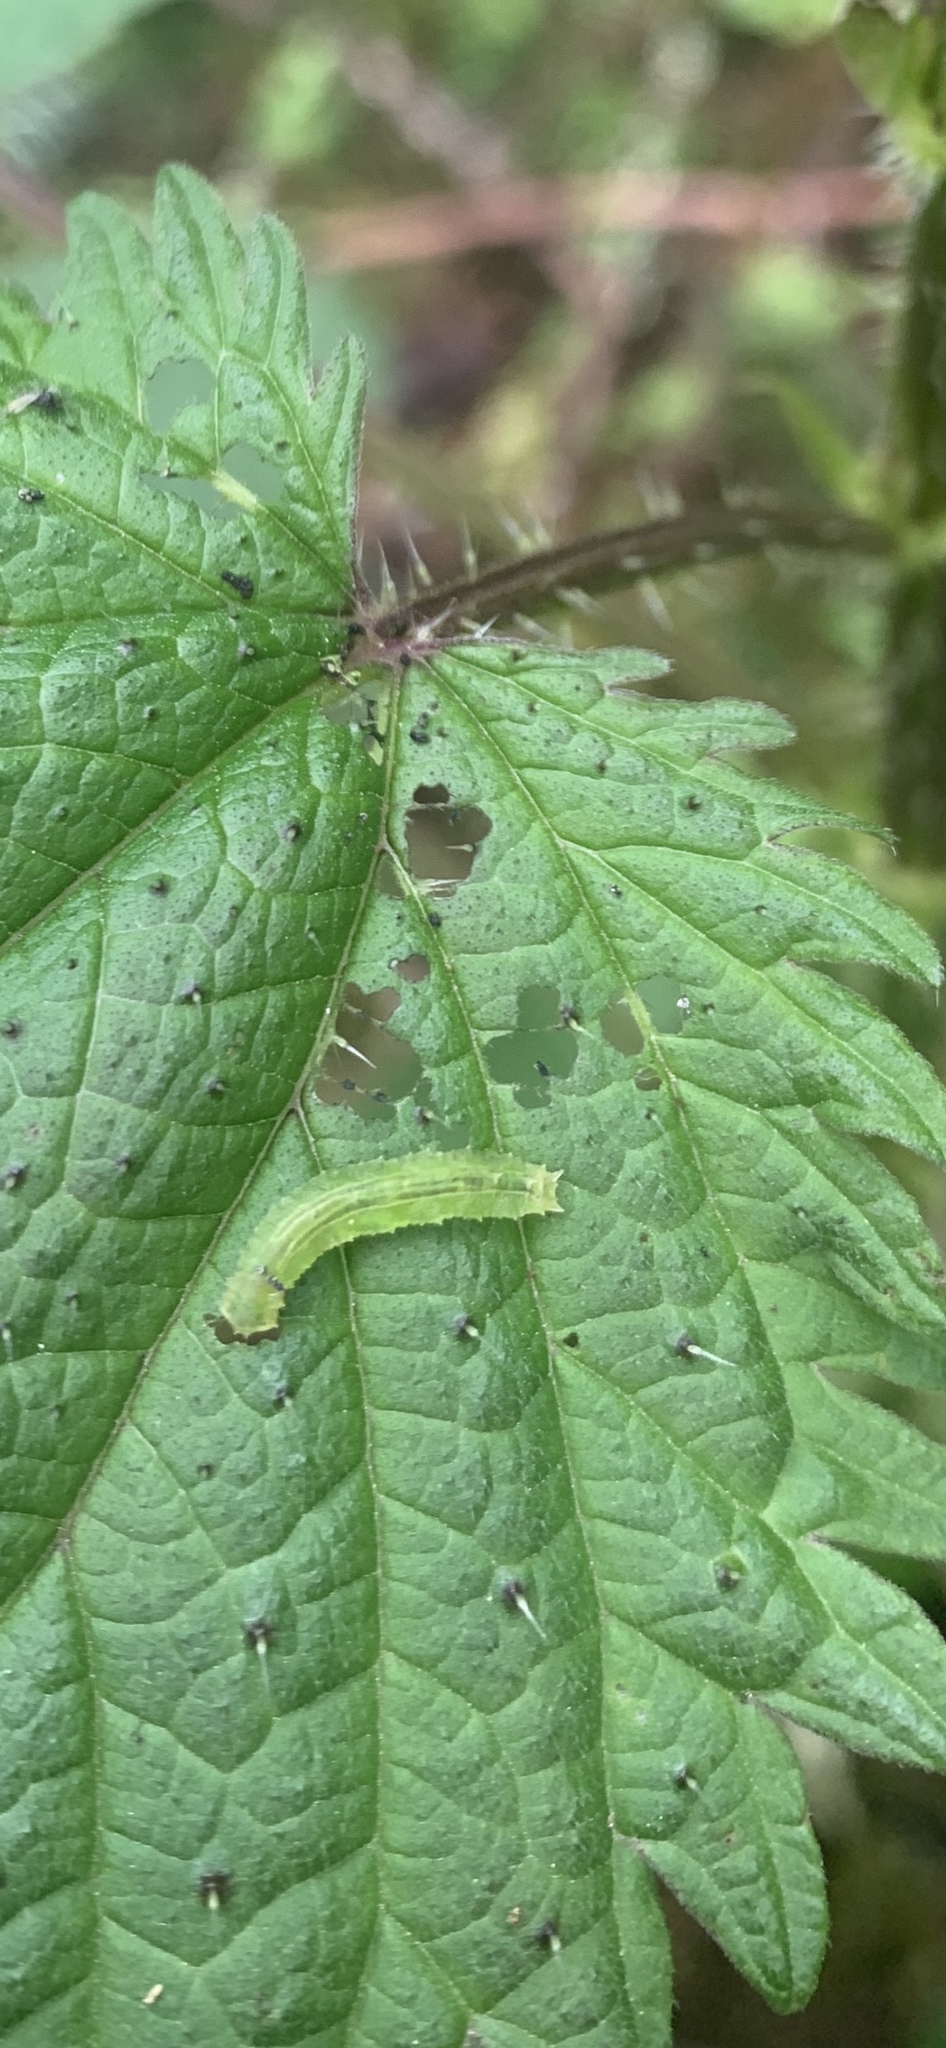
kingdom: Plantae
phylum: Tracheophyta
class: Magnoliopsida
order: Rosales
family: Urticaceae
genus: Urtica
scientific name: Urtica dioica
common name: Common nettle
